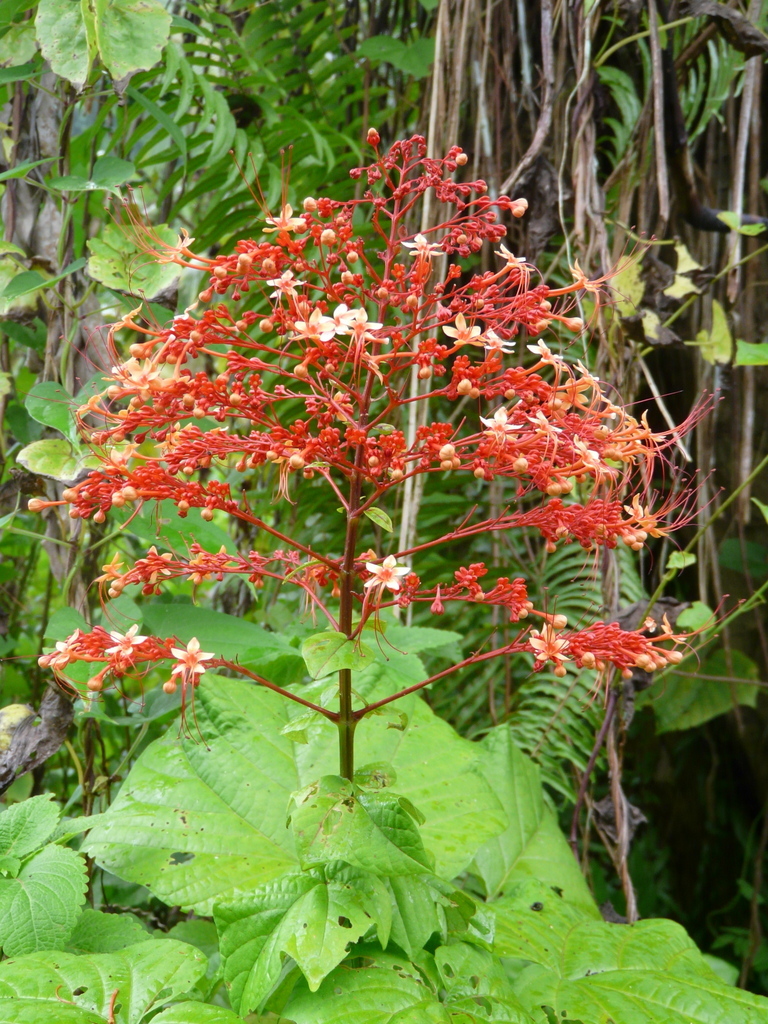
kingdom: Plantae
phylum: Tracheophyta
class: Magnoliopsida
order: Lamiales
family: Lamiaceae
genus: Clerodendrum
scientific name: Clerodendrum paniculatum
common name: Pagoda-flower
